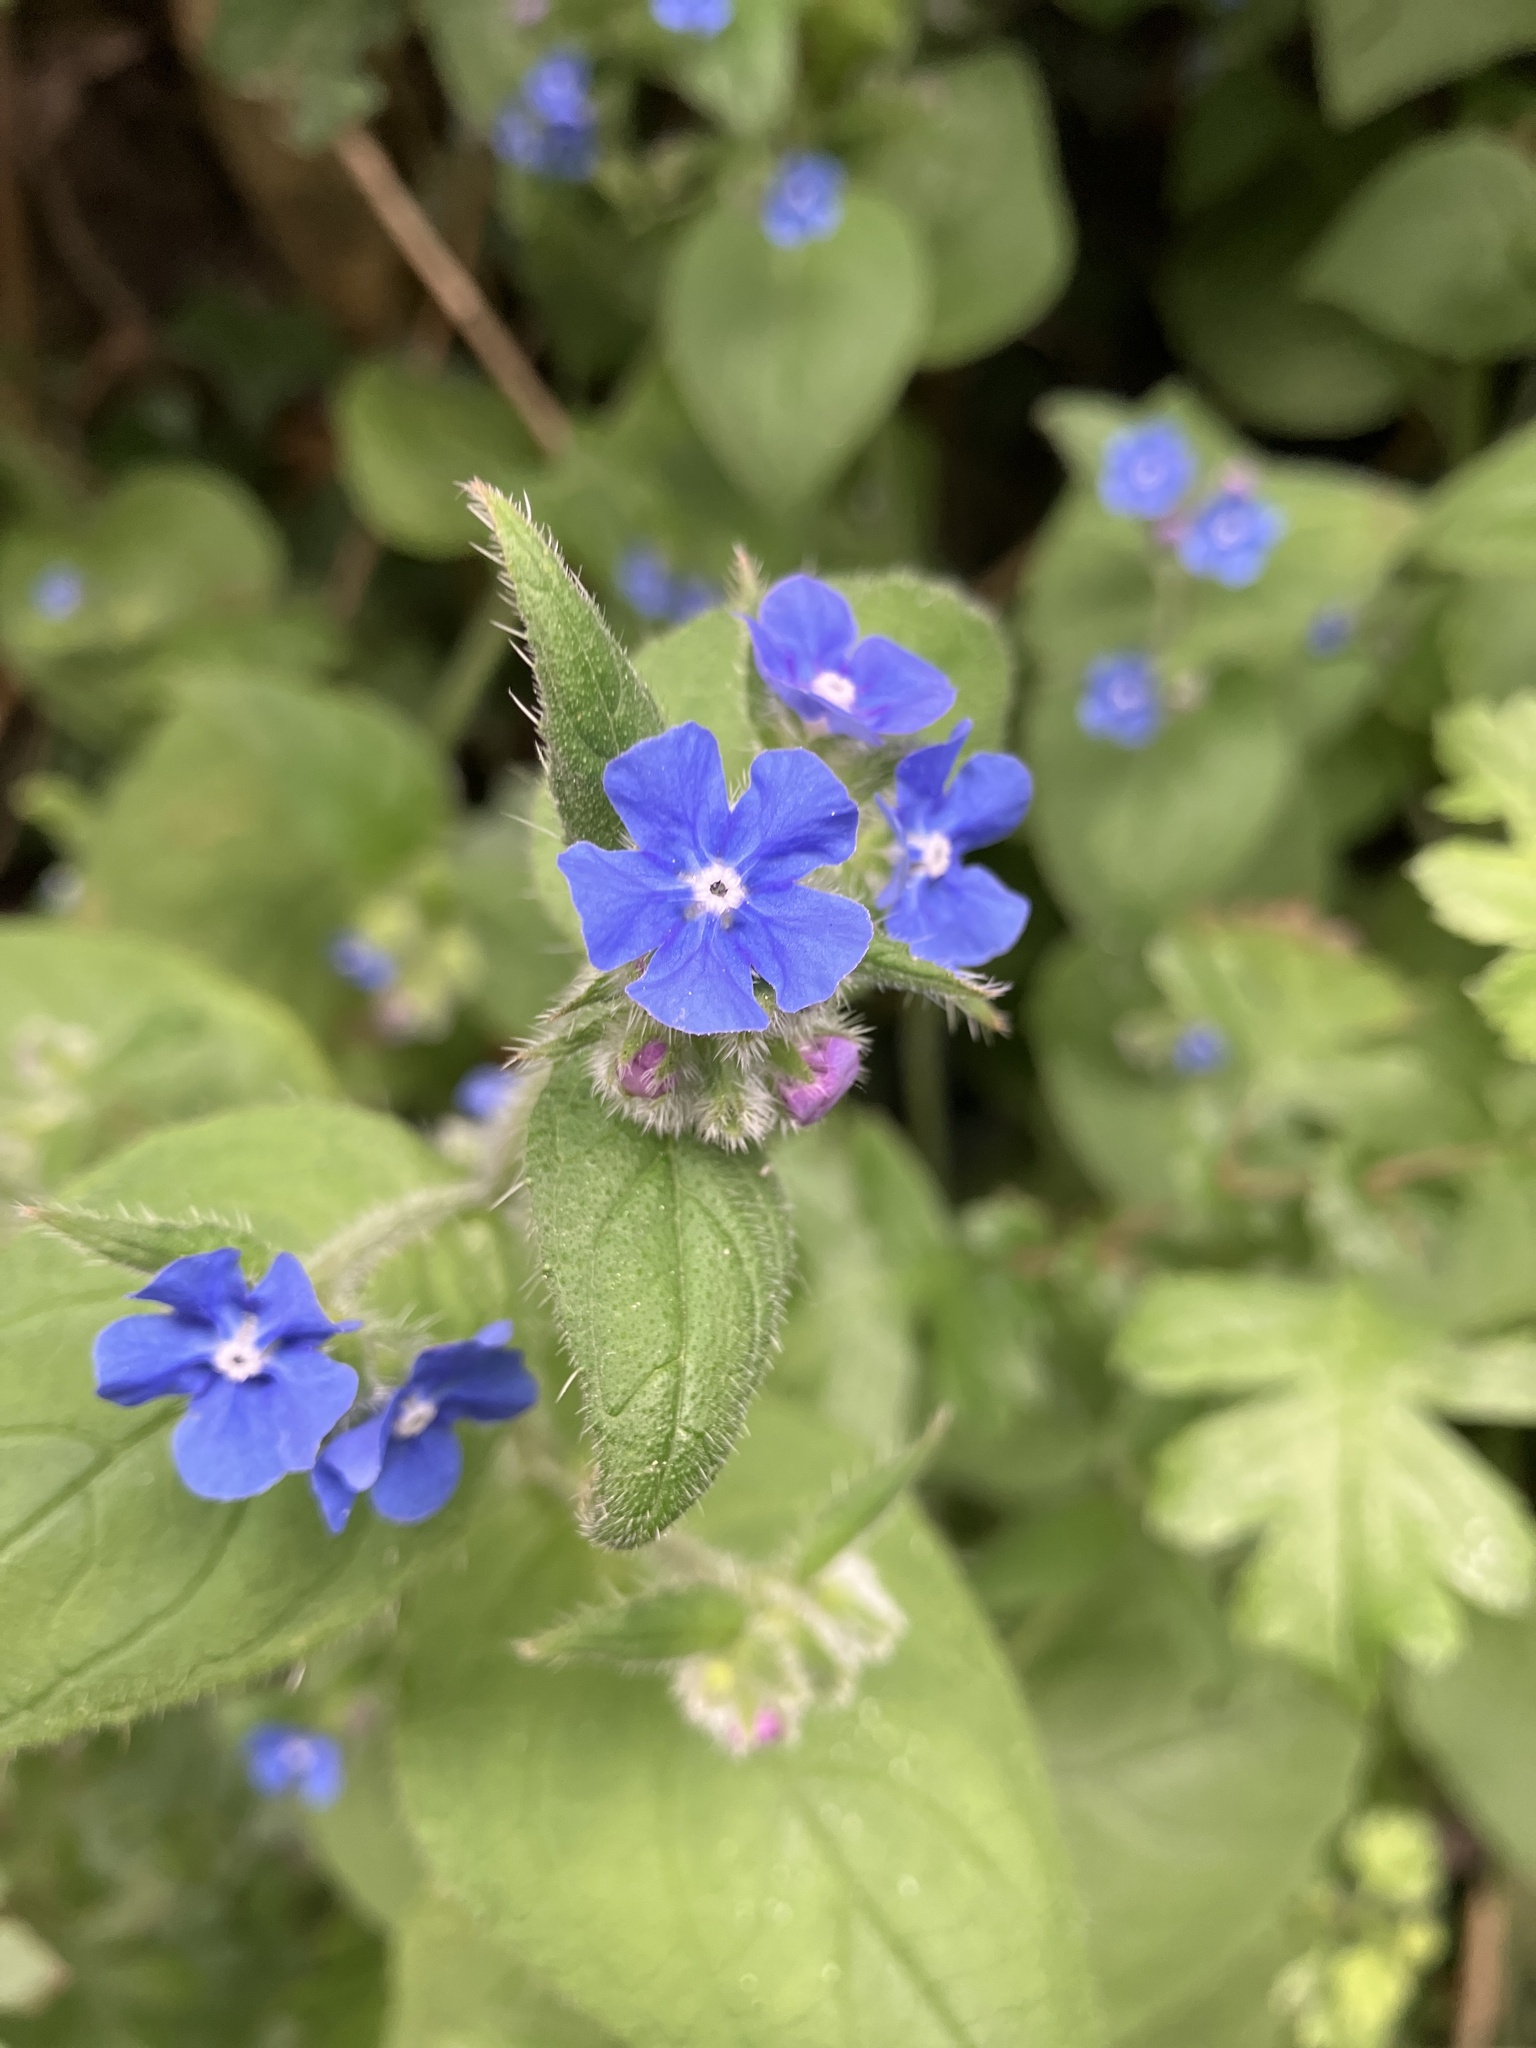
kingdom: Plantae
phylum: Tracheophyta
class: Magnoliopsida
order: Boraginales
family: Boraginaceae
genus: Pentaglottis
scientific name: Pentaglottis sempervirens
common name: Green alkanet
